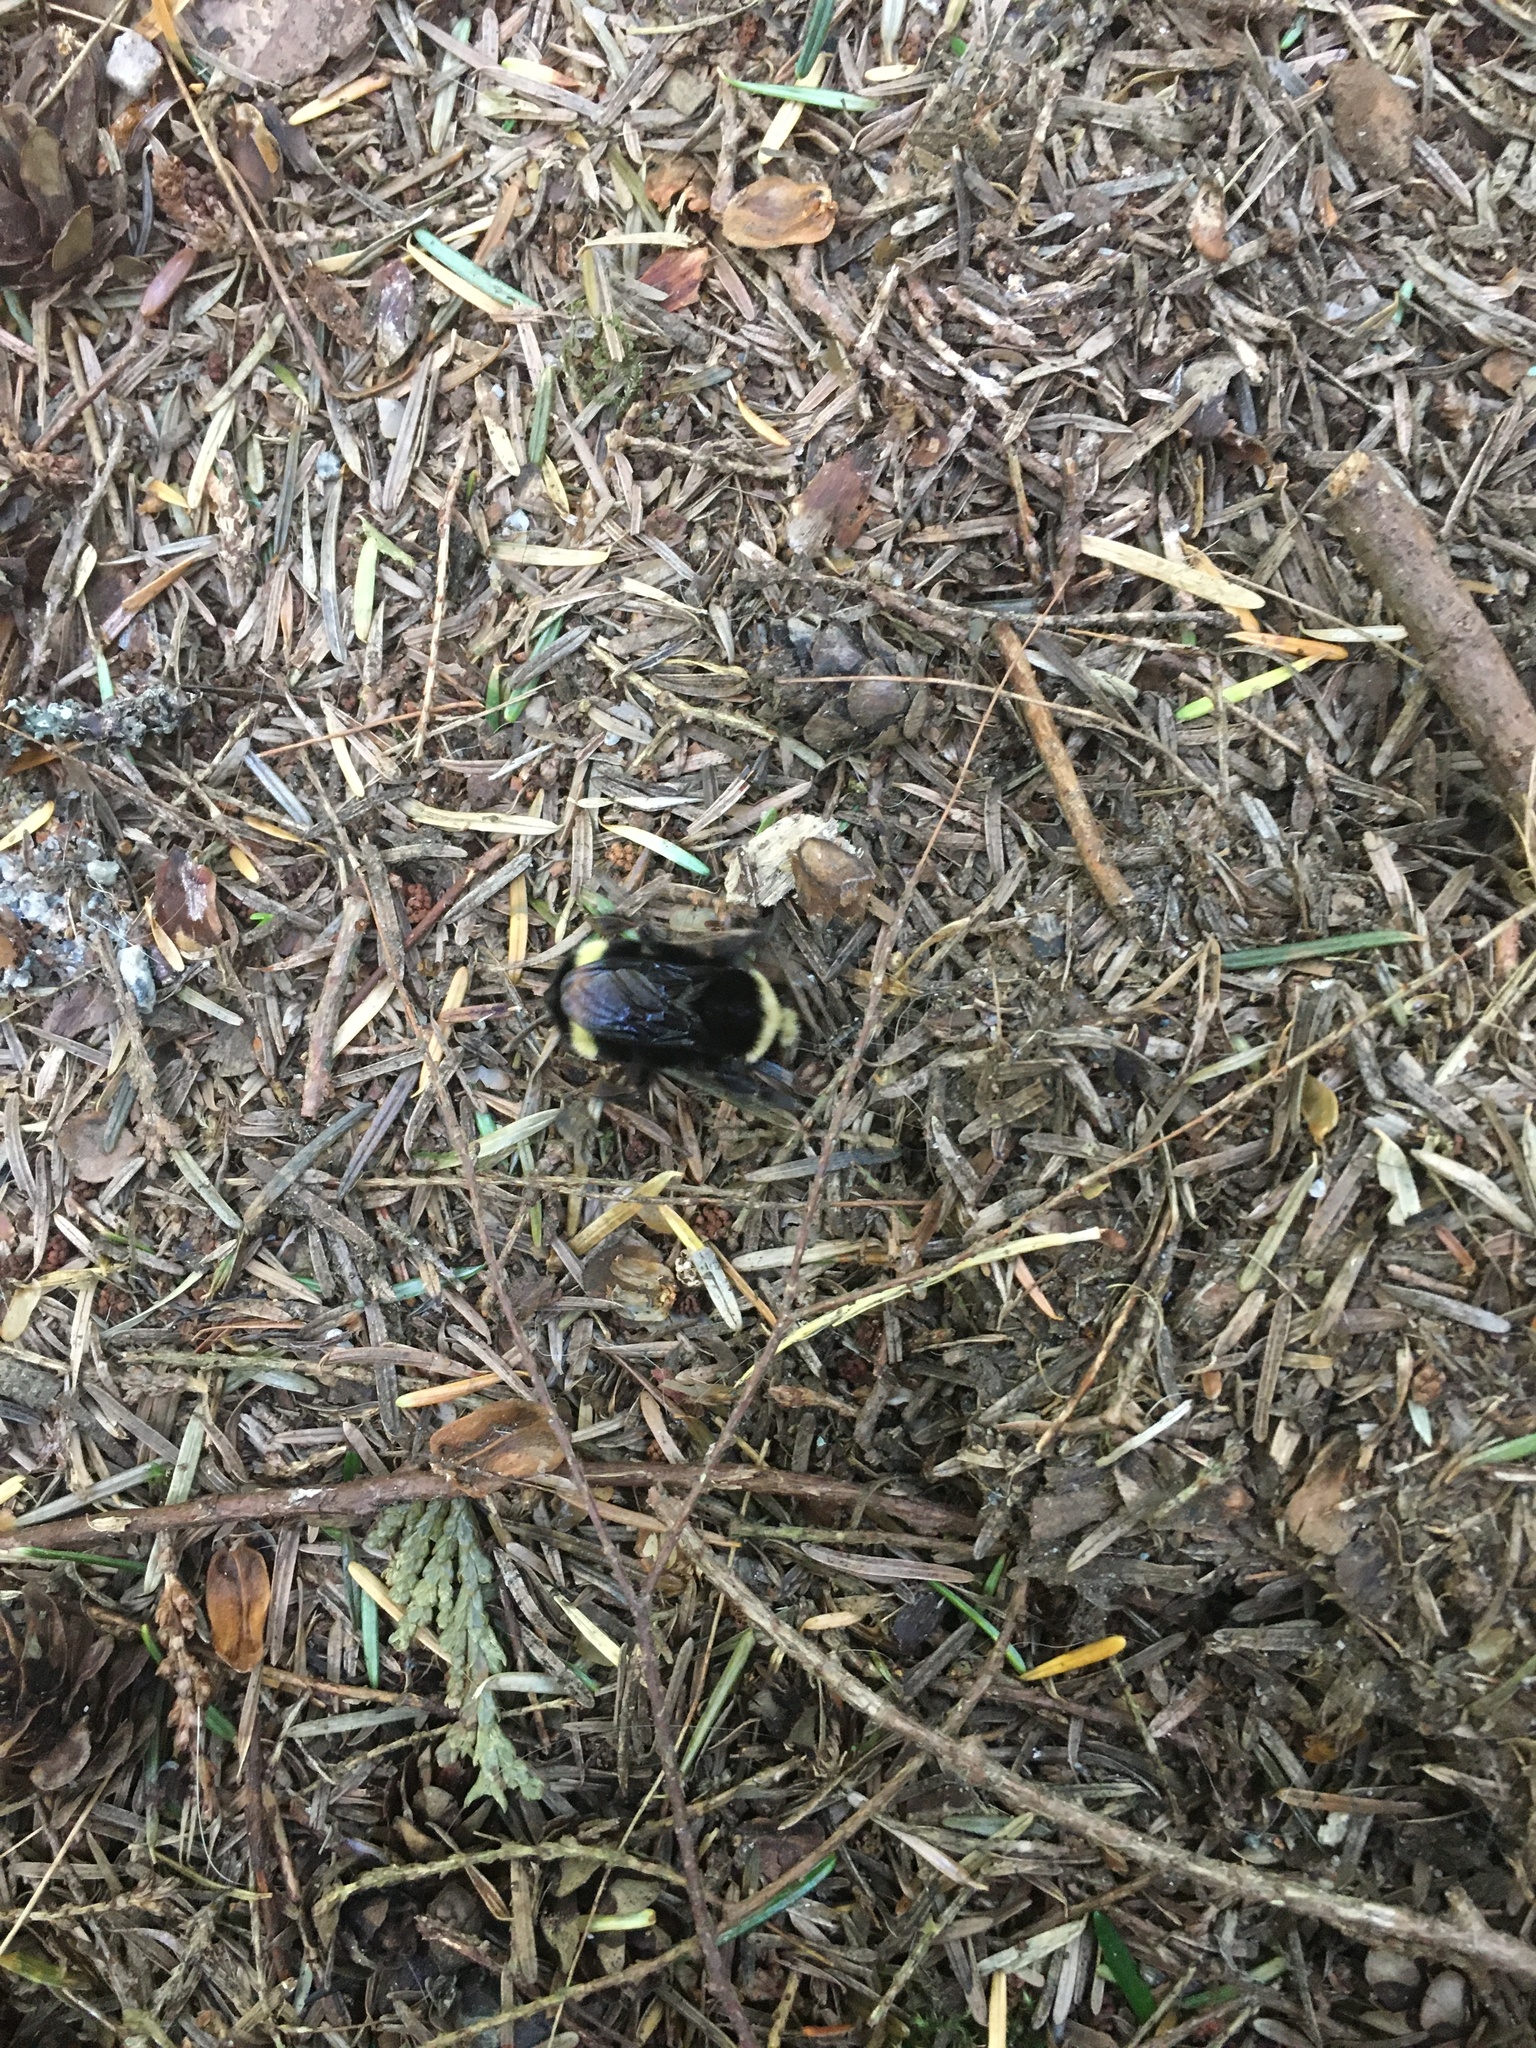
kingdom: Animalia
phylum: Arthropoda
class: Insecta
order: Hymenoptera
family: Apidae
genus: Bombus
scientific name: Bombus vosnesenskii
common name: Vosnesensky bumble bee
